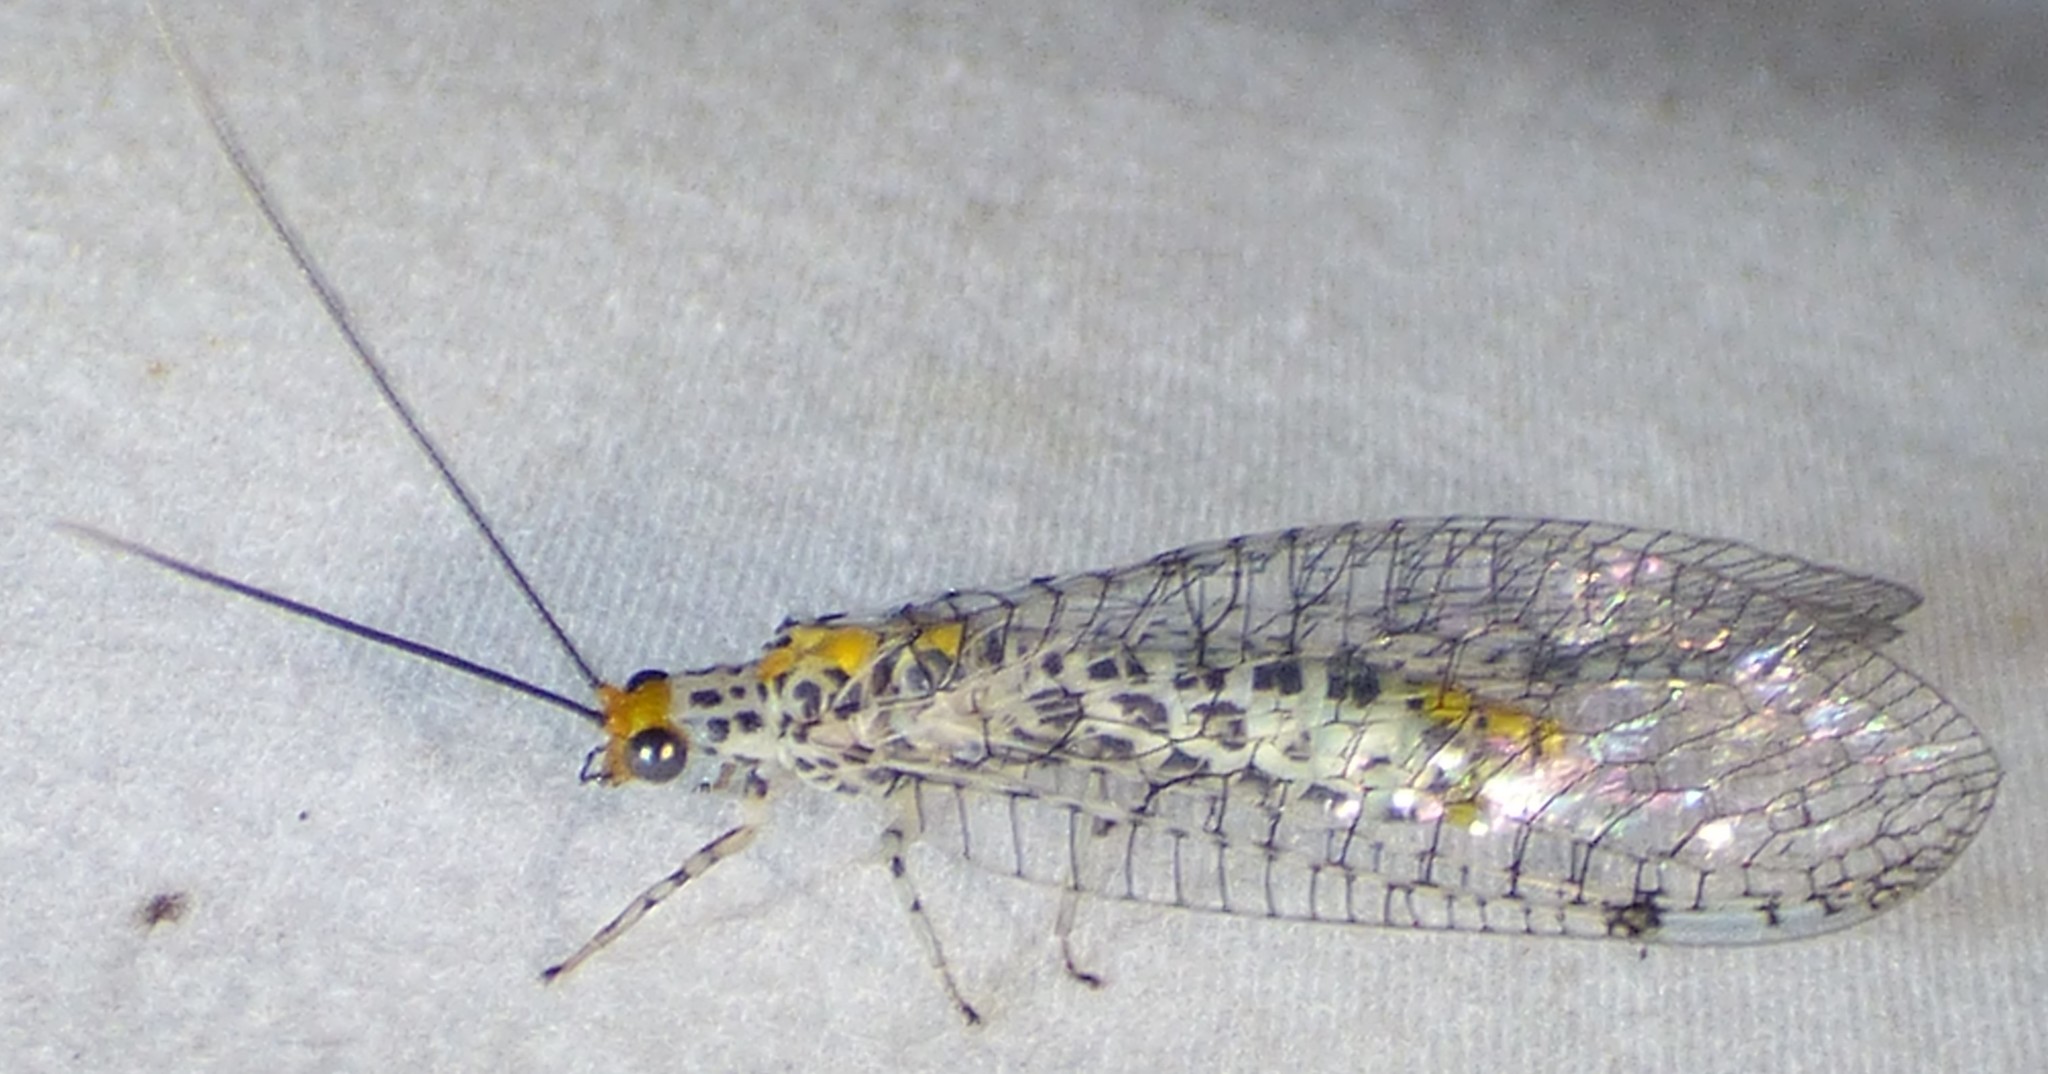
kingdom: Animalia
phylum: Arthropoda
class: Insecta
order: Neuroptera
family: Chrysopidae
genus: Abachrysa
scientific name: Abachrysa eureka
